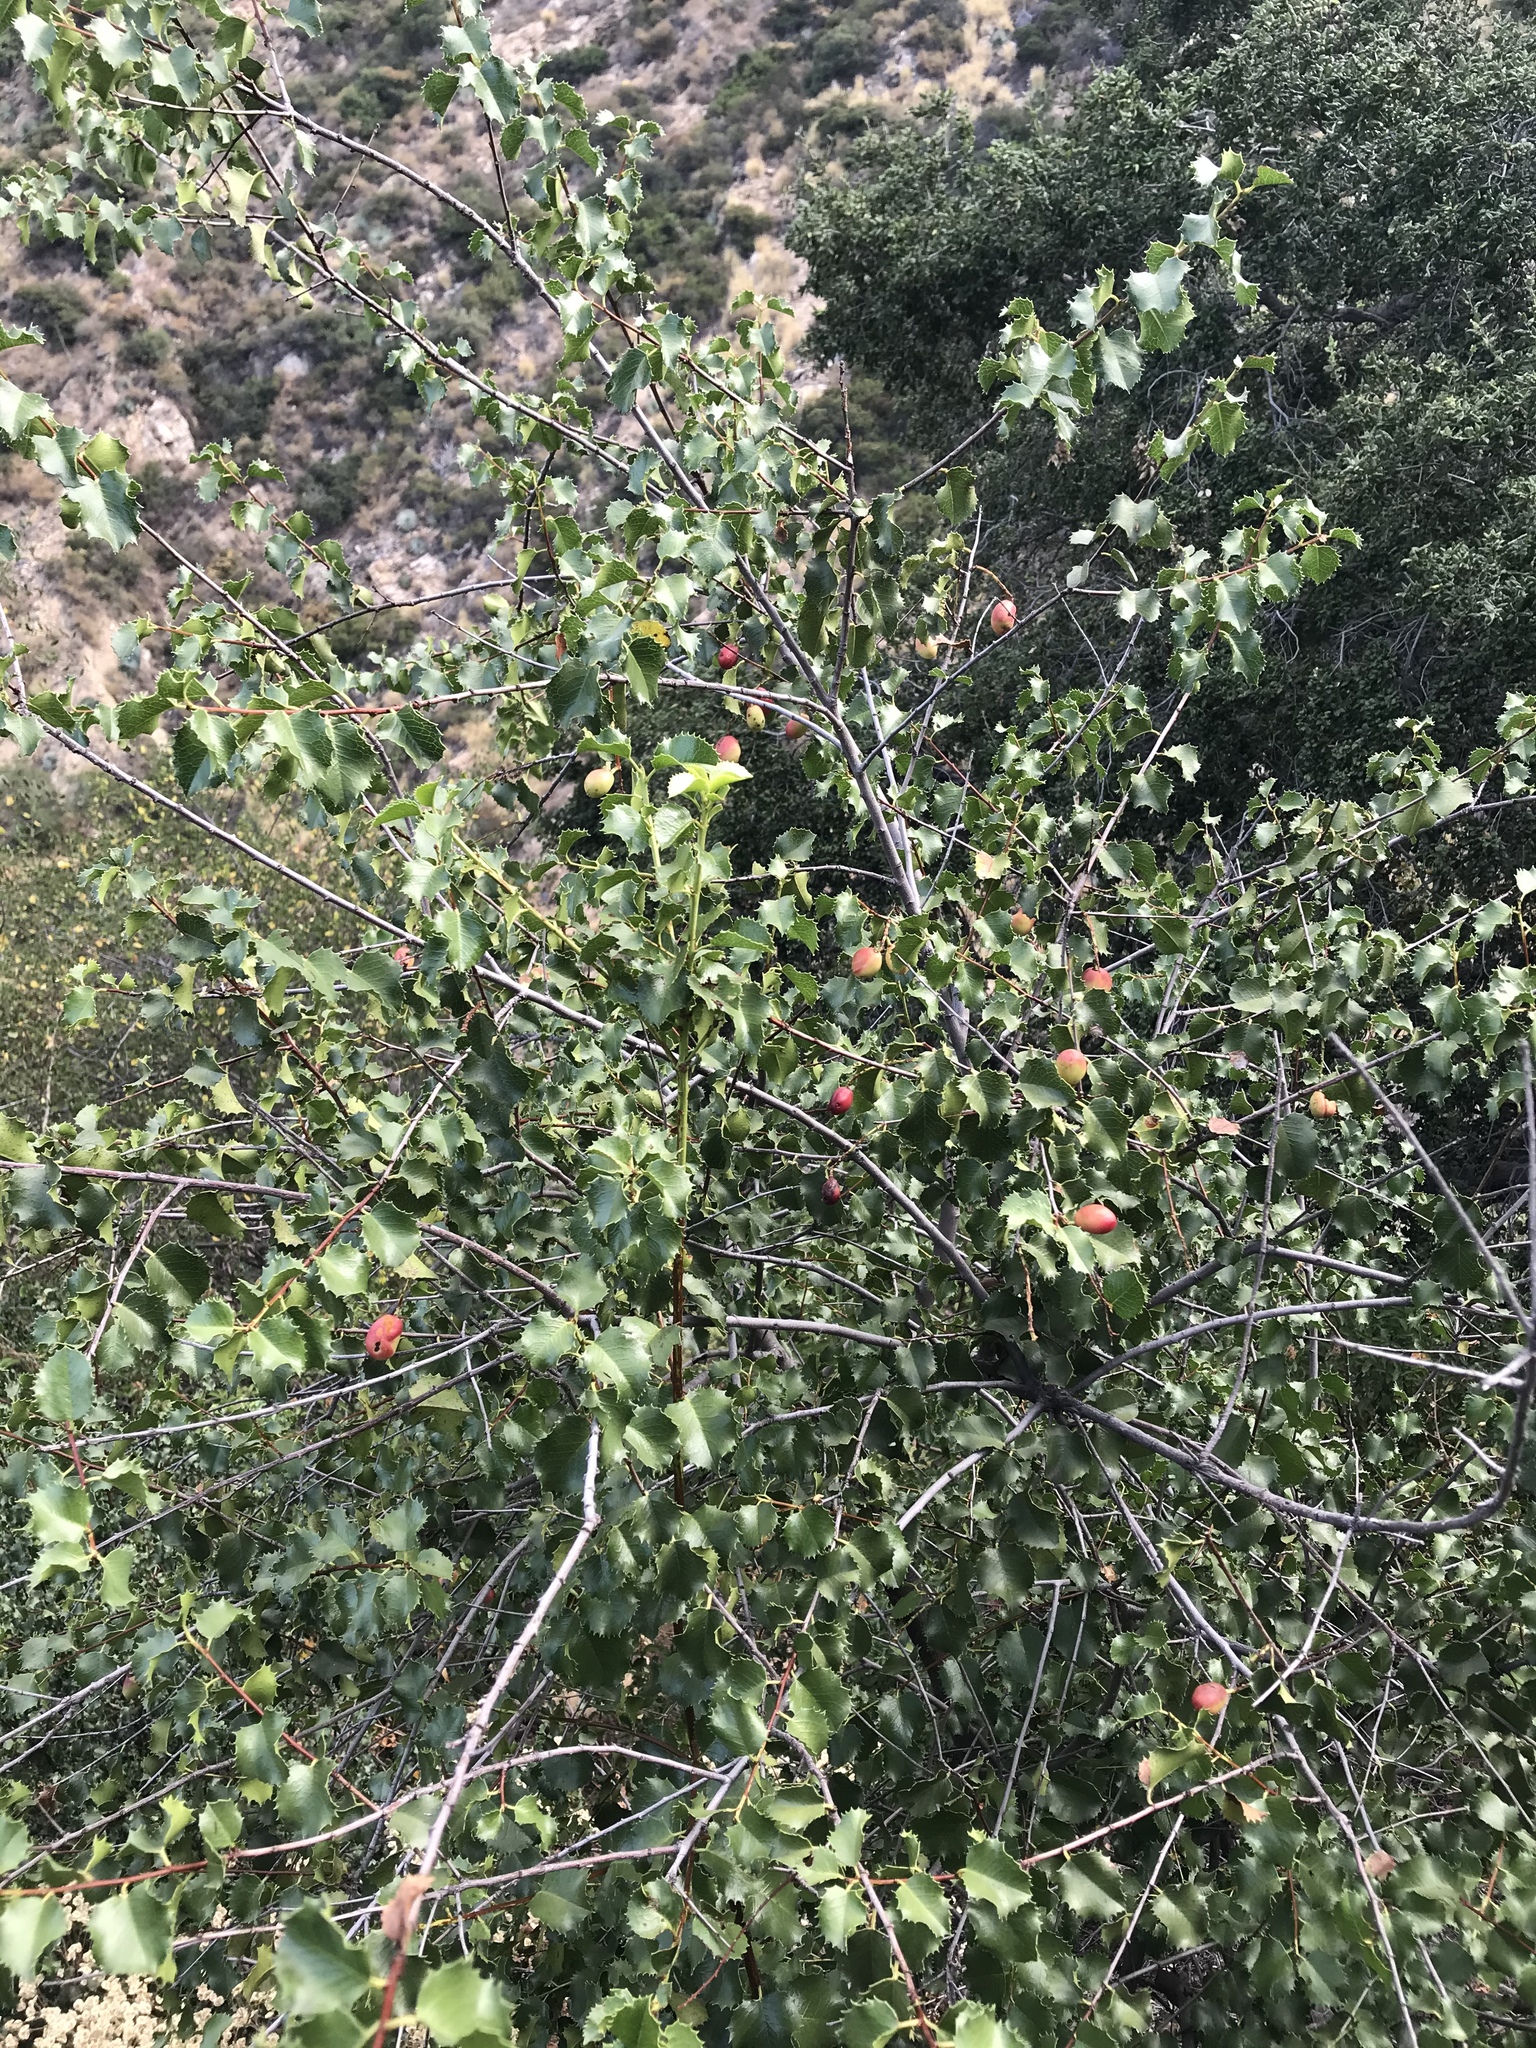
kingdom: Plantae
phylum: Tracheophyta
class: Magnoliopsida
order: Rosales
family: Rosaceae
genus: Prunus
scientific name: Prunus ilicifolia
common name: Hollyleaf cherry
